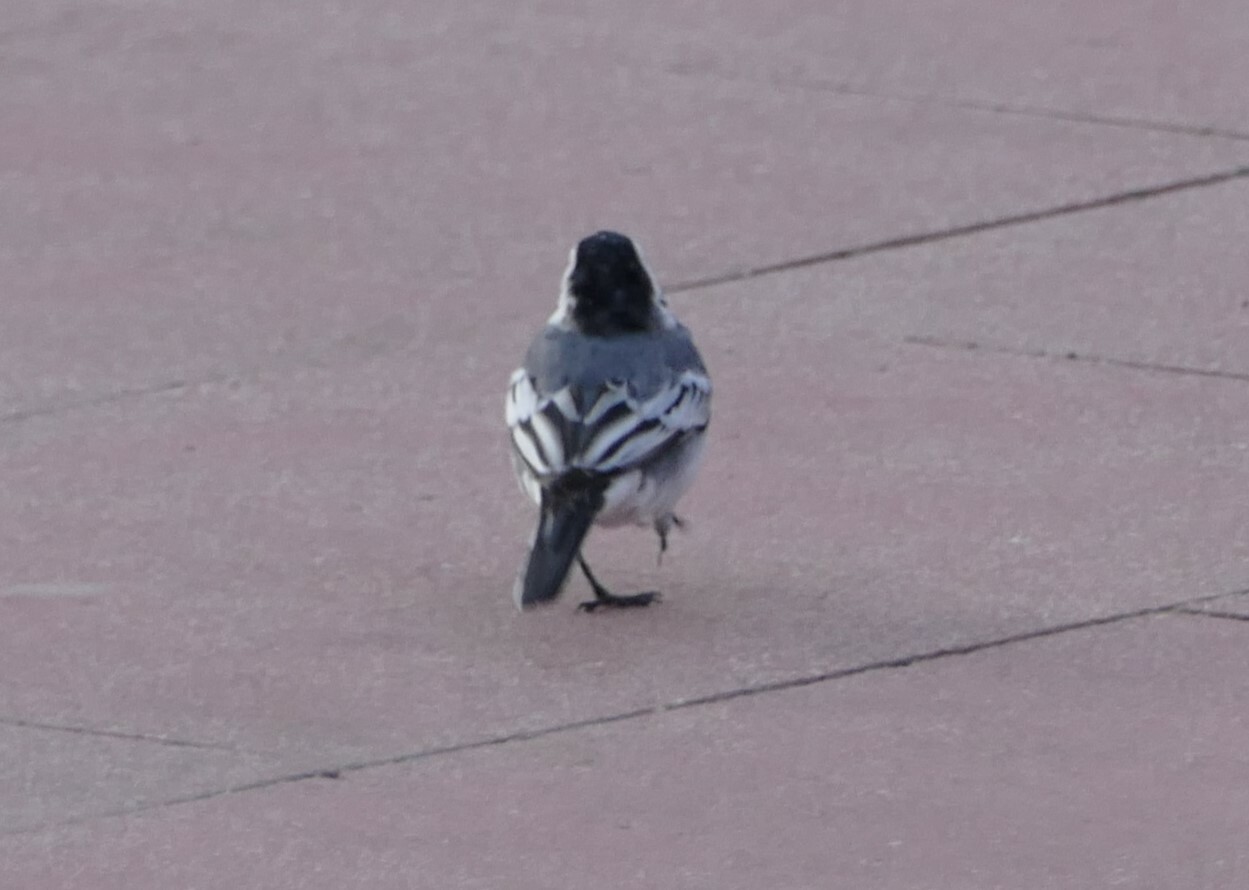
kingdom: Animalia
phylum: Chordata
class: Aves
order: Passeriformes
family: Motacillidae
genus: Motacilla
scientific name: Motacilla alba
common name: White wagtail
